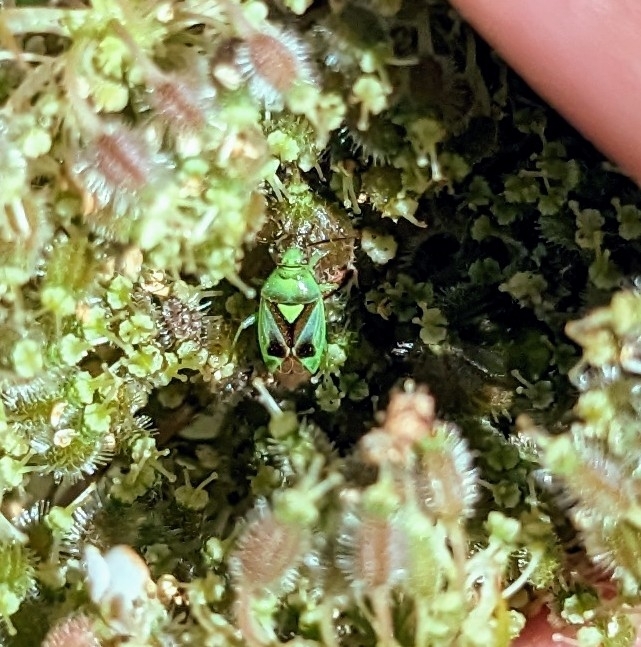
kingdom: Animalia
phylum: Arthropoda
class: Insecta
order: Hemiptera
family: Miridae
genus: Orthops
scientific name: Orthops campestris
